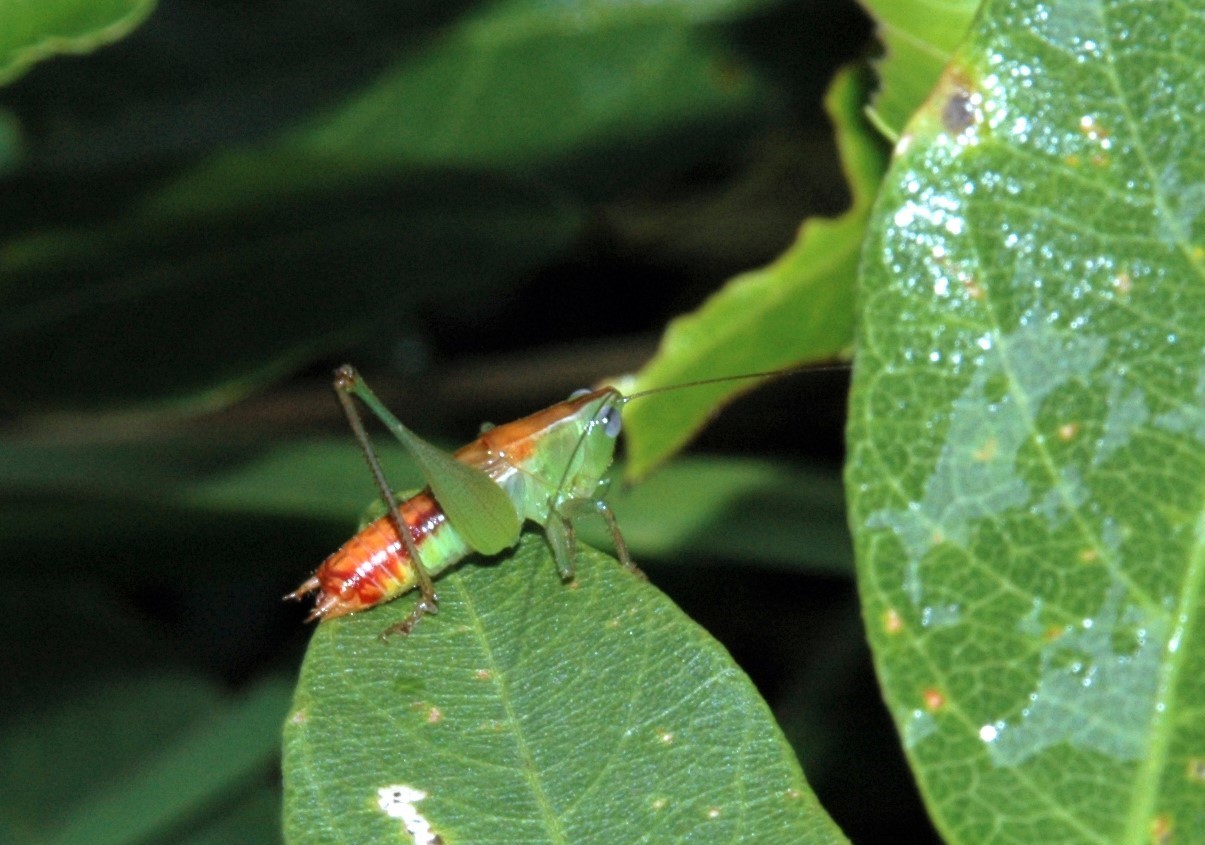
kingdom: Animalia
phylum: Arthropoda
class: Insecta
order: Orthoptera
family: Tettigoniidae
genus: Odontoxiphidium
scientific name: Odontoxiphidium apterum
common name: Wingless meadow katydid
